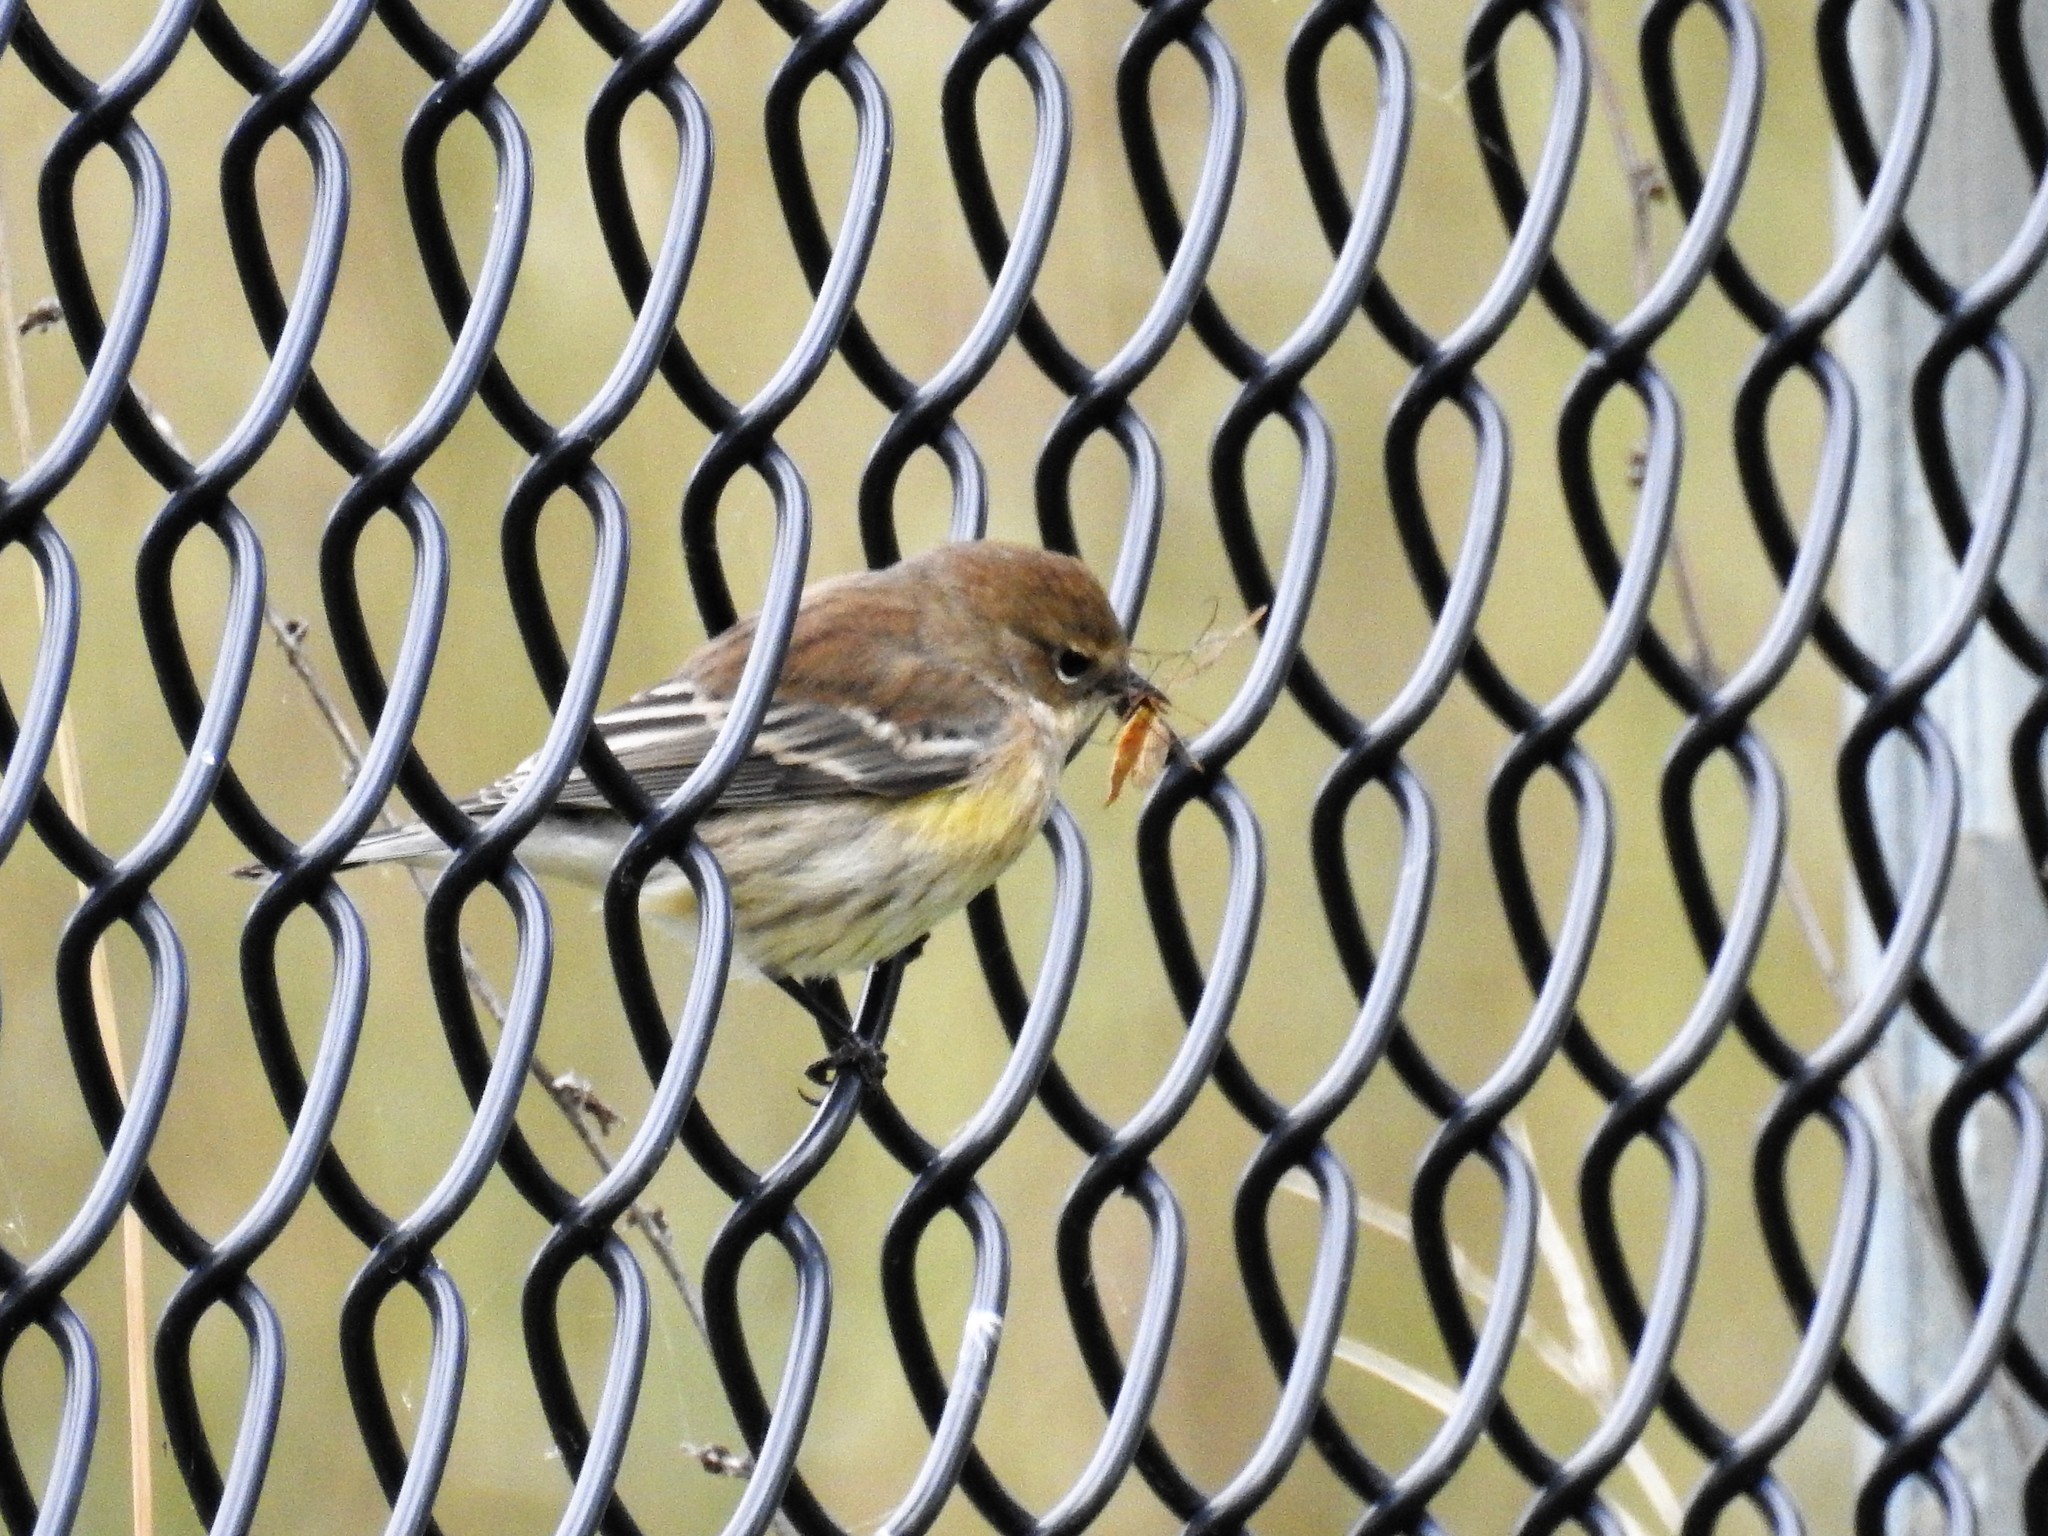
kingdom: Animalia
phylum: Chordata
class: Aves
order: Passeriformes
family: Parulidae
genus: Setophaga
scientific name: Setophaga coronata
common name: Myrtle warbler
